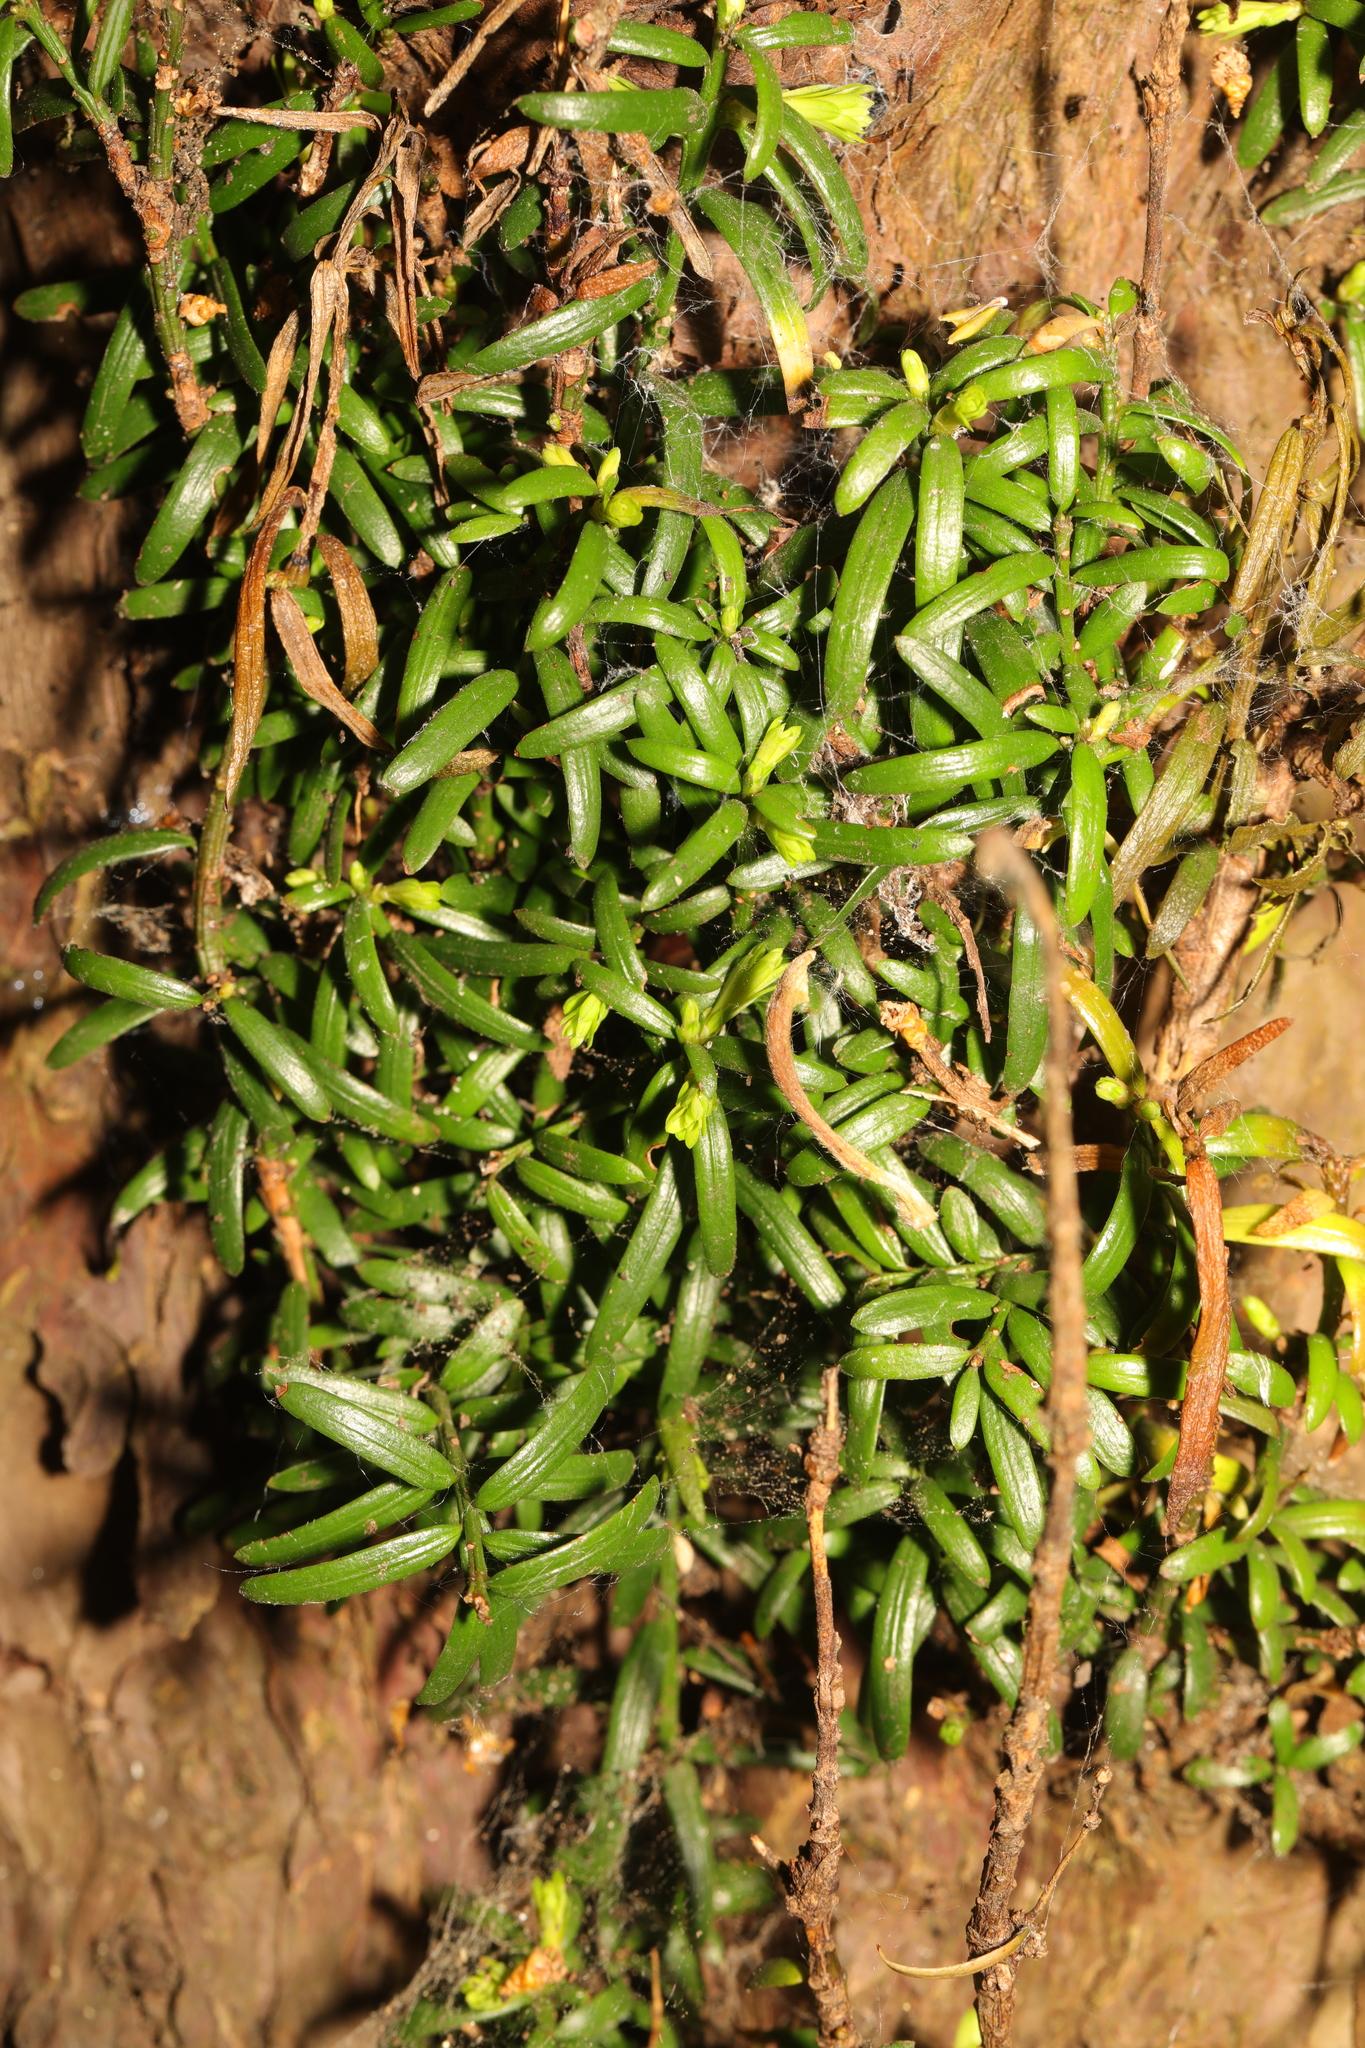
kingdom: Plantae
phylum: Tracheophyta
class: Pinopsida
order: Pinales
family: Taxaceae
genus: Taxus
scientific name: Taxus baccata
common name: Yew
